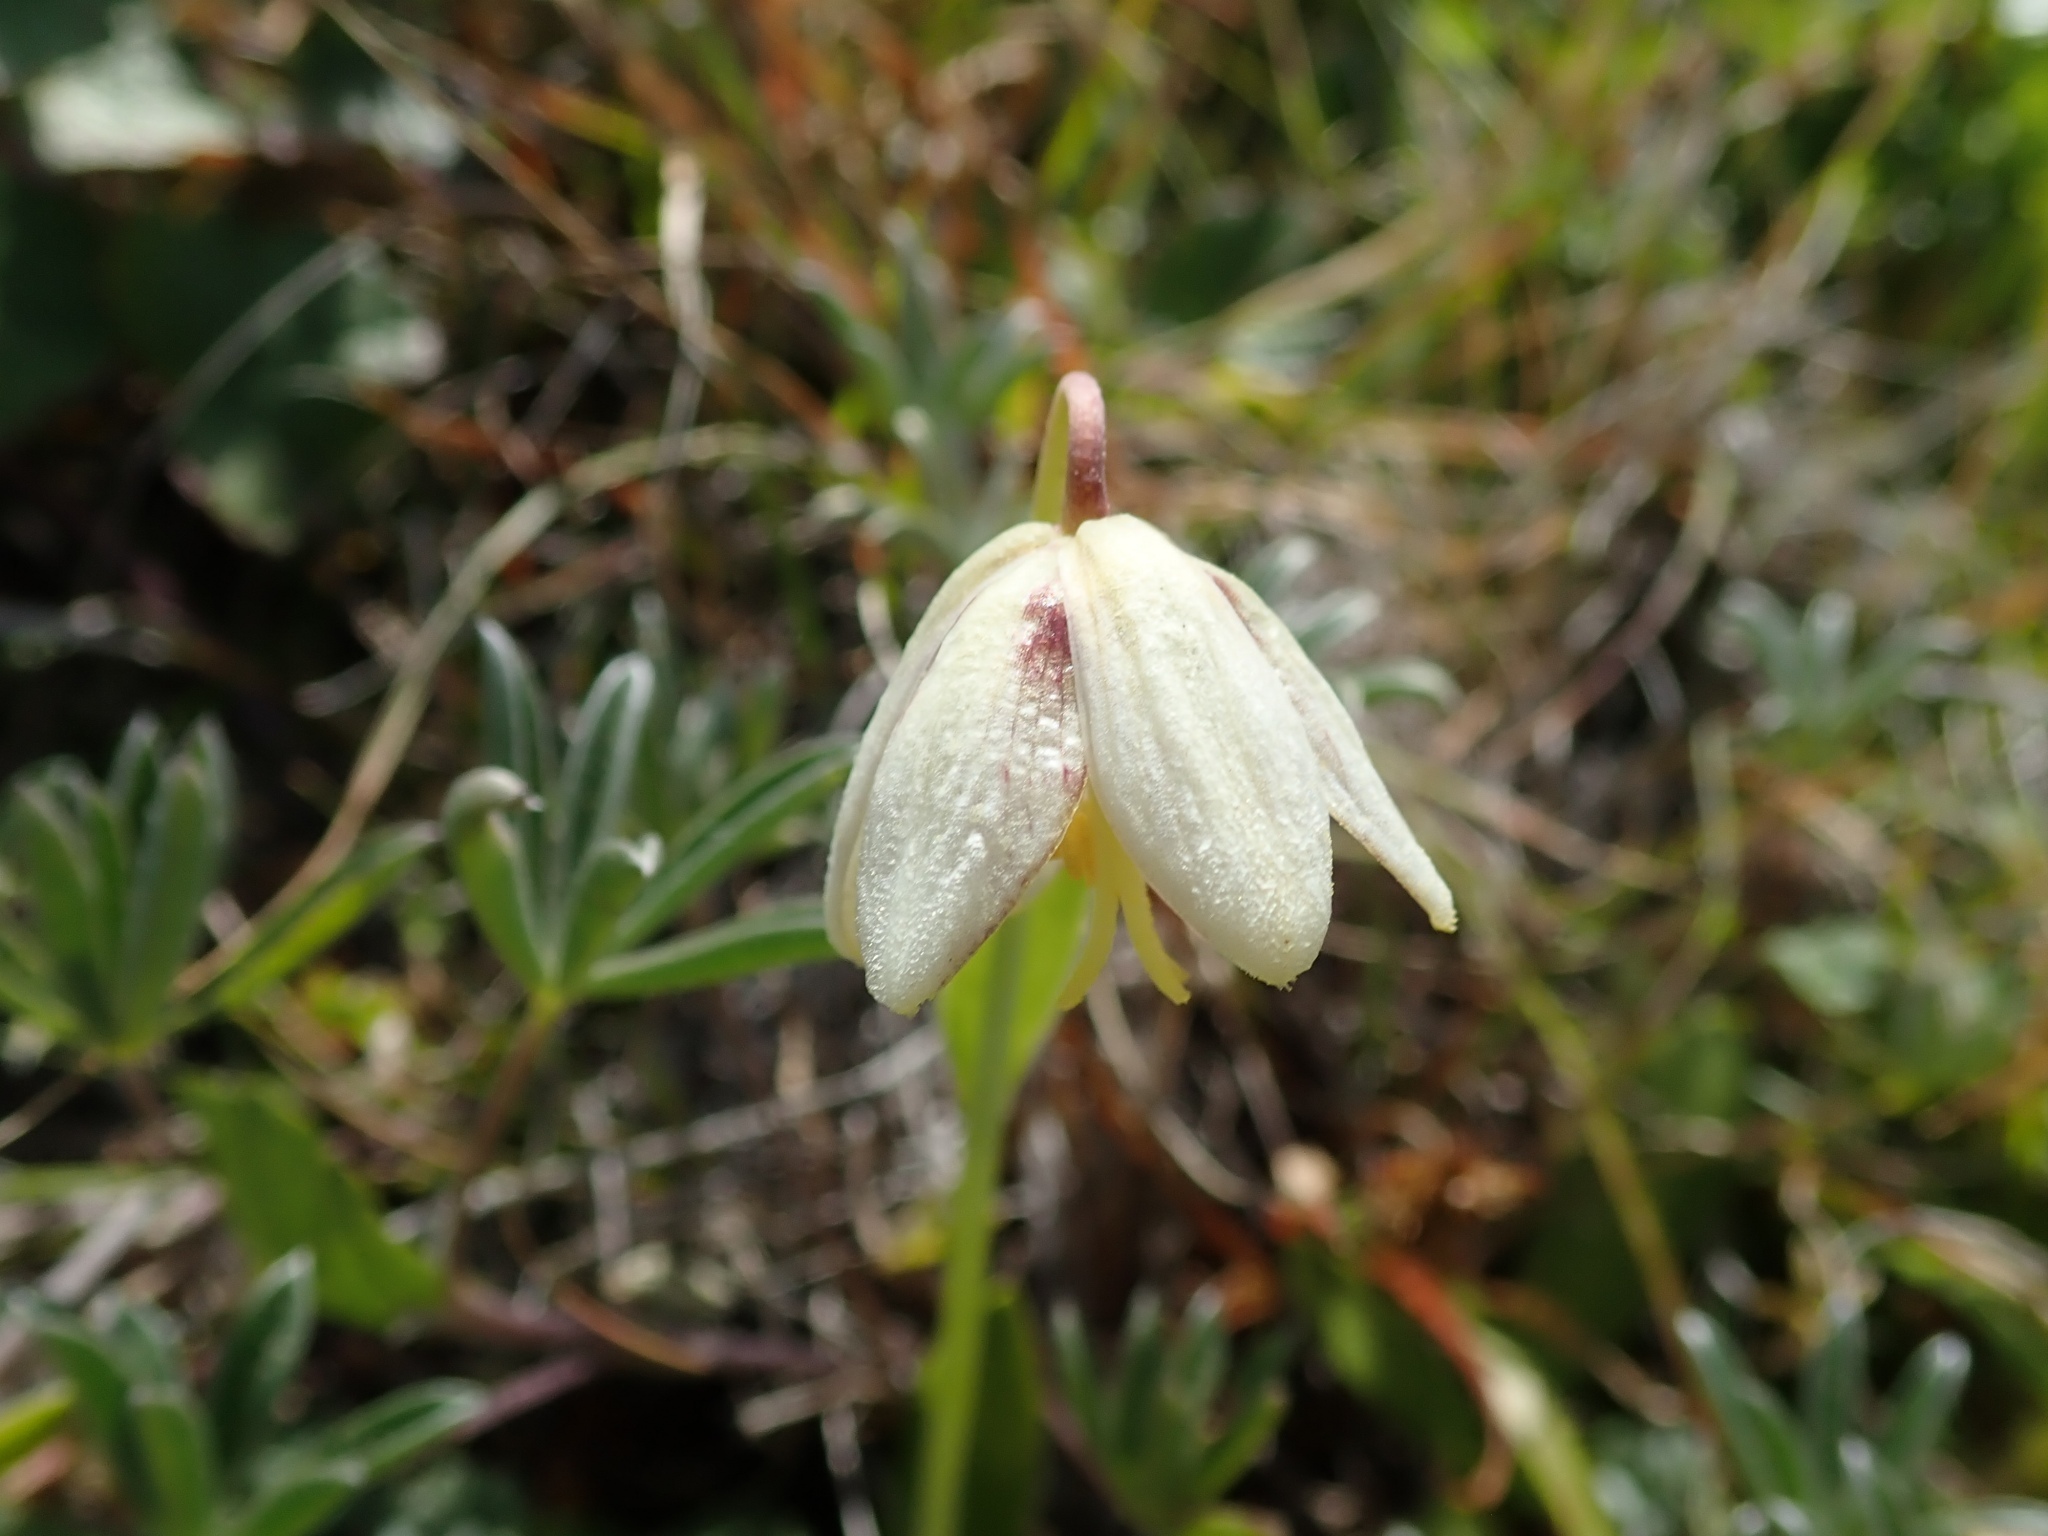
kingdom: Plantae
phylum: Tracheophyta
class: Liliopsida
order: Liliales
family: Liliaceae
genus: Fritillaria
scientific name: Fritillaria liliacea
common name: Fragrant fritillary
